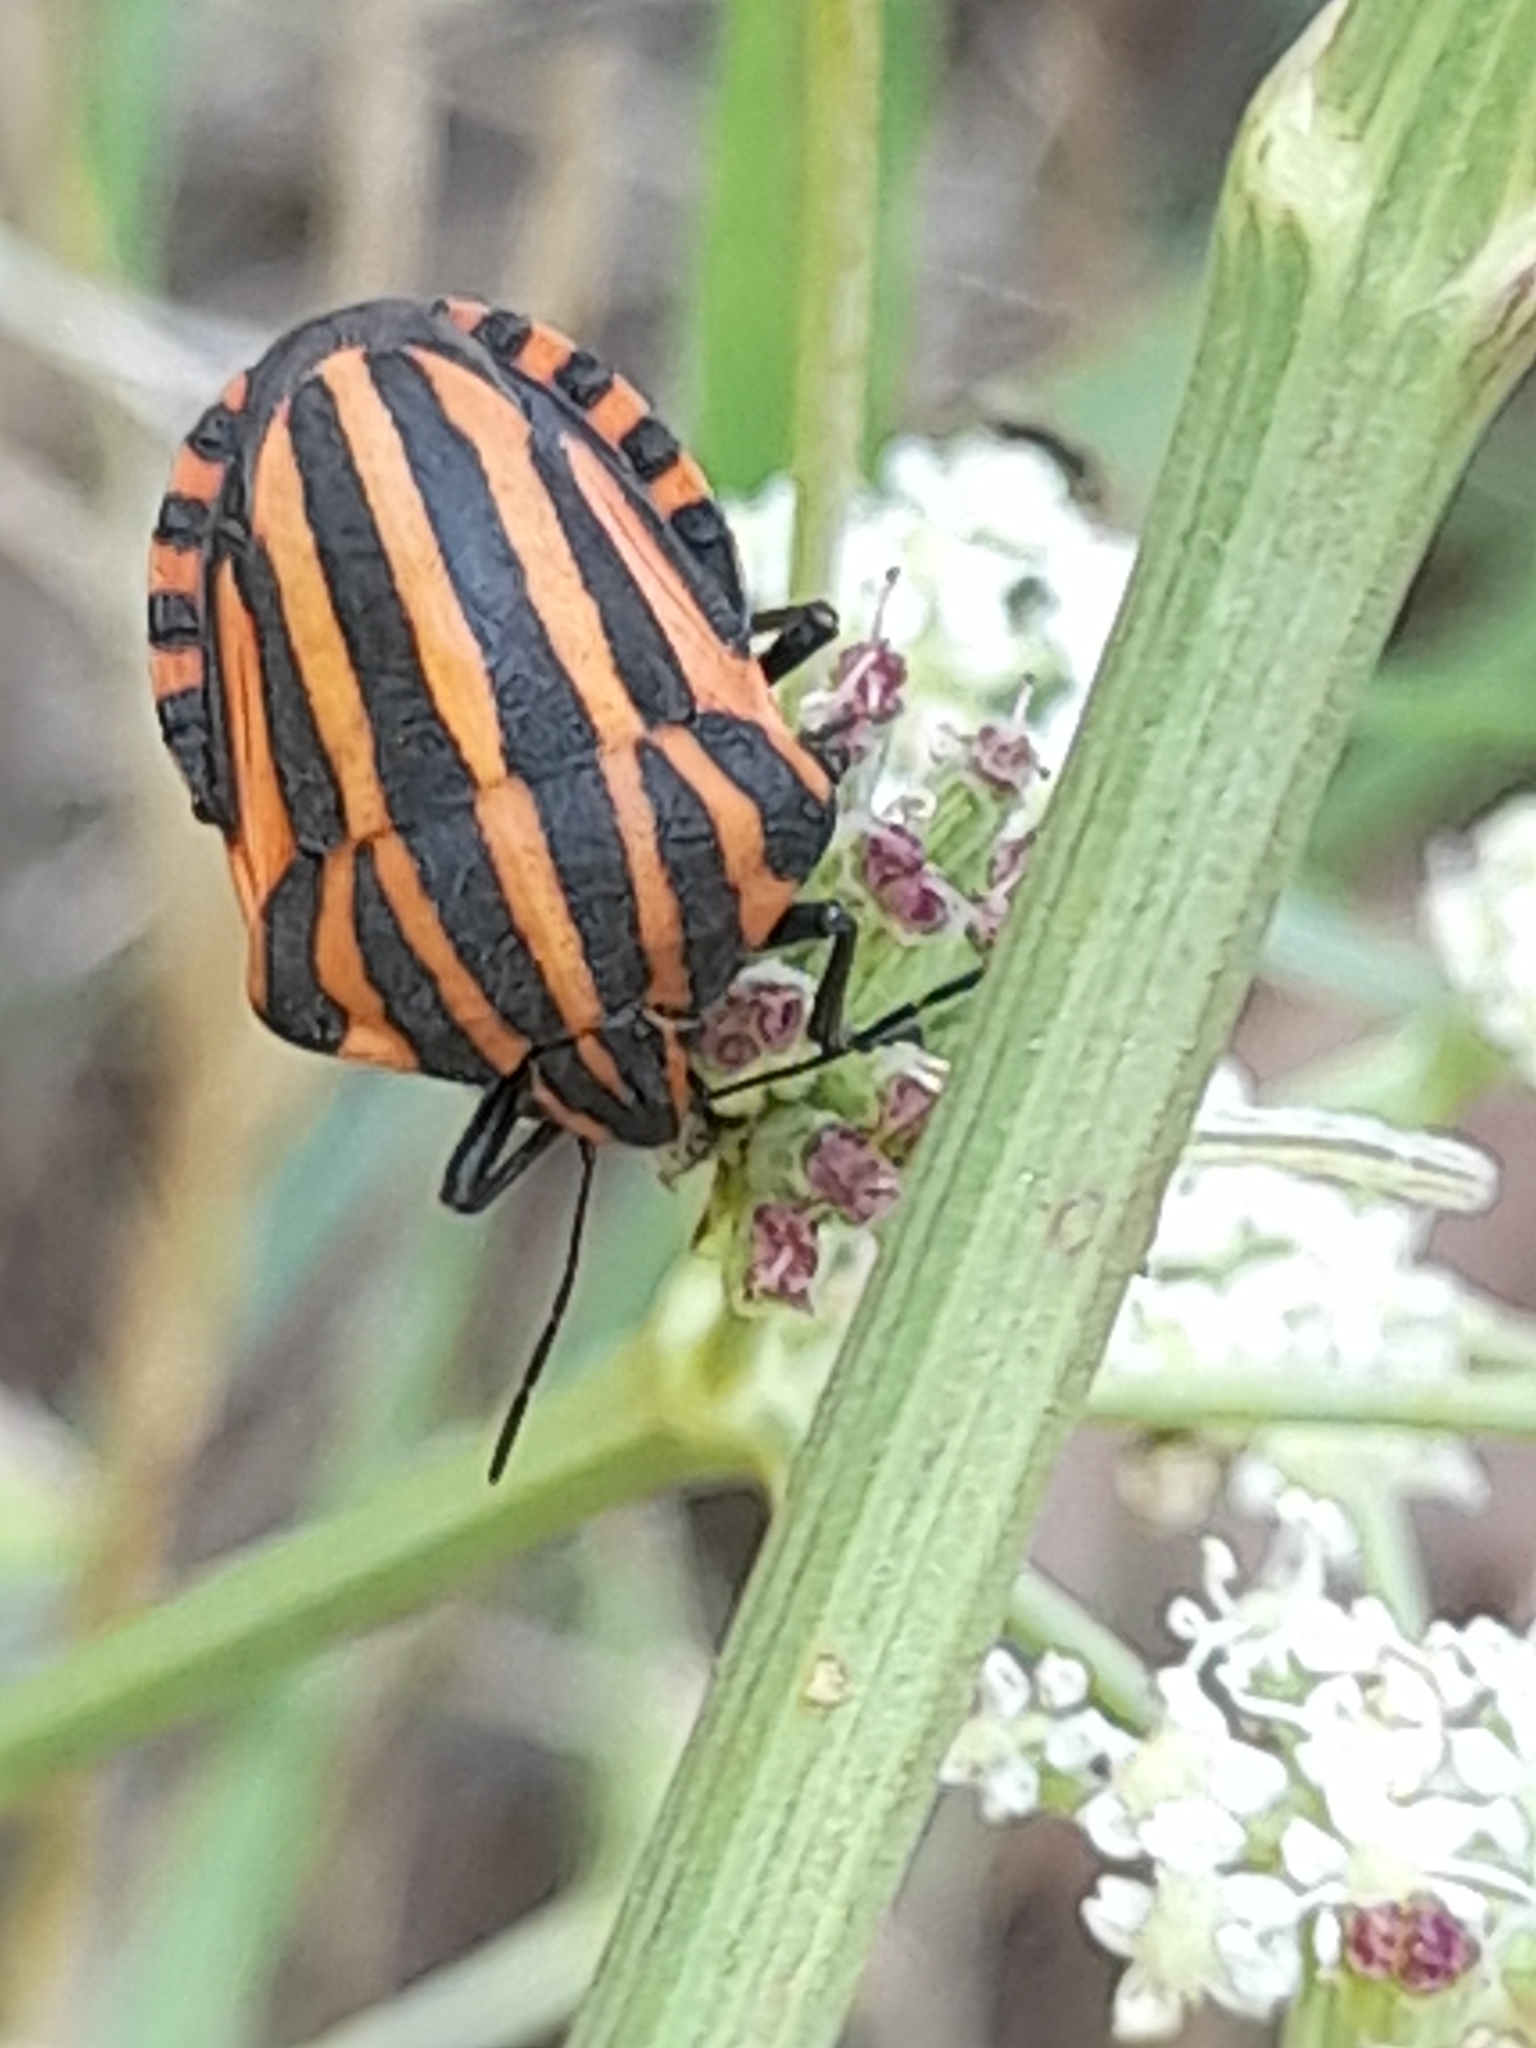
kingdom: Animalia
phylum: Arthropoda
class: Insecta
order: Hemiptera
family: Pentatomidae
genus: Graphosoma
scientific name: Graphosoma italicum
